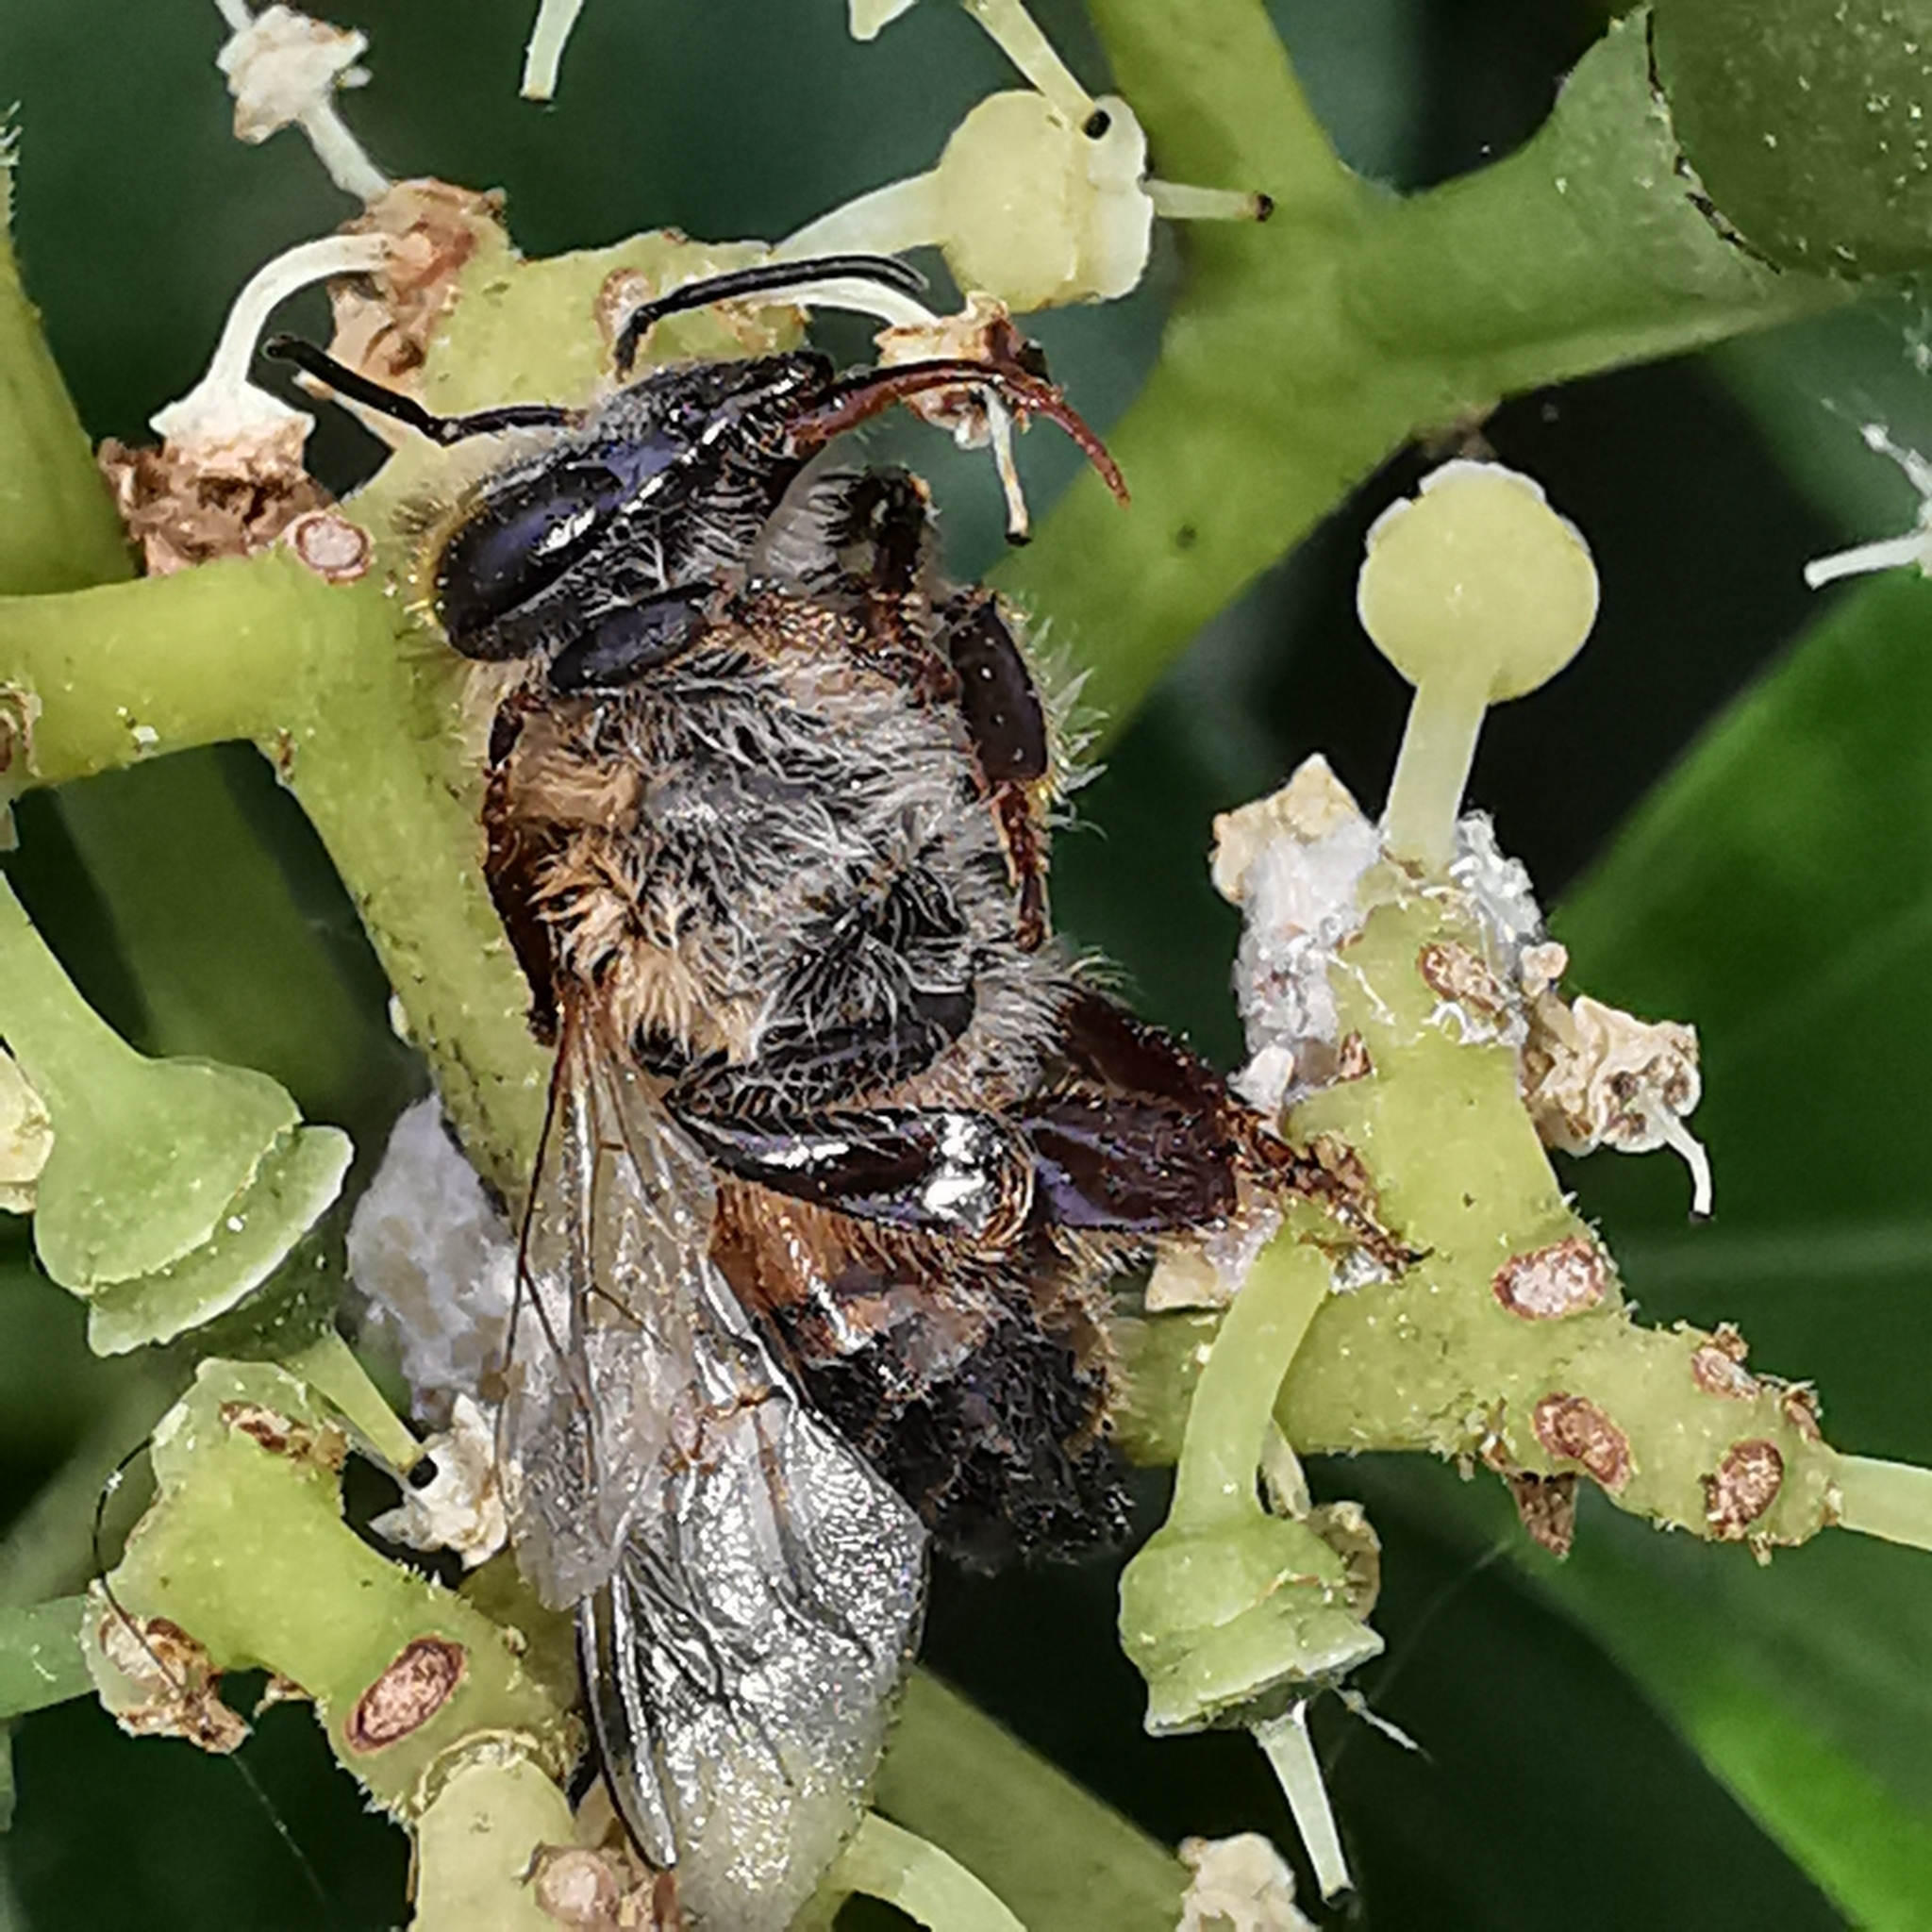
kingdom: Animalia
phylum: Arthropoda
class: Insecta
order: Hymenoptera
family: Apidae
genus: Apis
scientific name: Apis mellifera
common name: Honey bee
